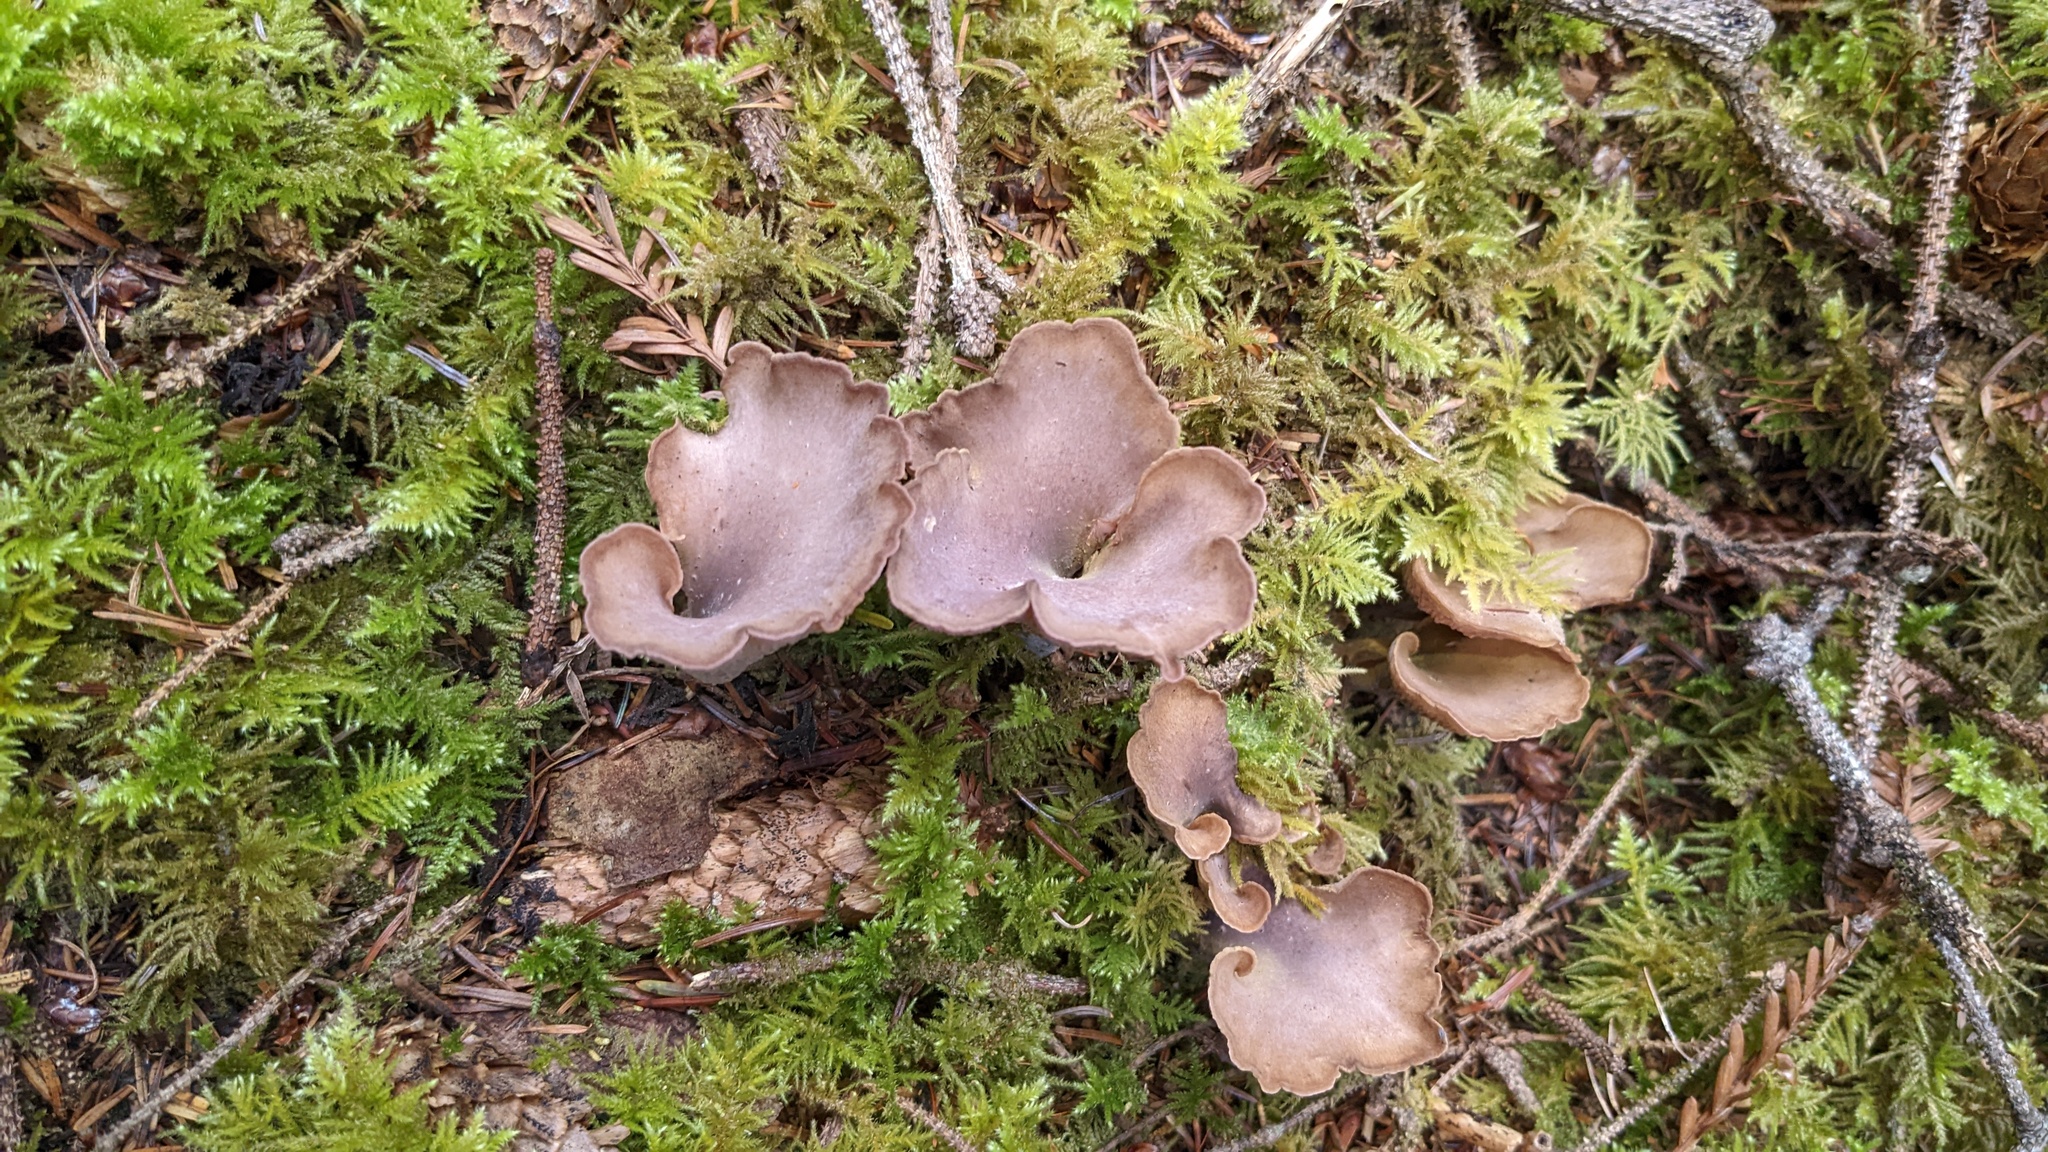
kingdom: Fungi
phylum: Basidiomycota
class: Agaricomycetes
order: Gomphales
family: Gomphaceae
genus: Gomphus
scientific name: Gomphus clavatus
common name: Pig's ear
